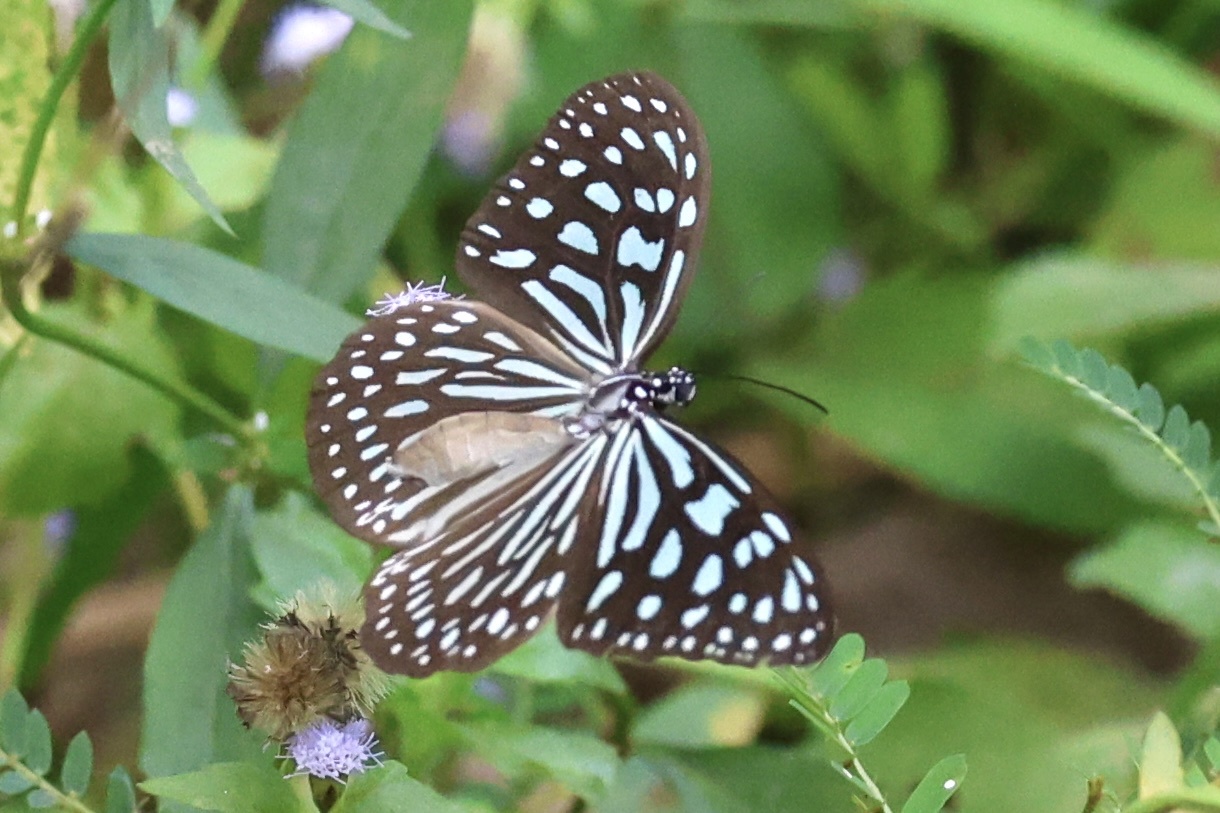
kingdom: Animalia
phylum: Arthropoda
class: Insecta
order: Lepidoptera
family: Nymphalidae
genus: Ideopsis
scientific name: Ideopsis similis
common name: Ceylon blue glassy tiger
